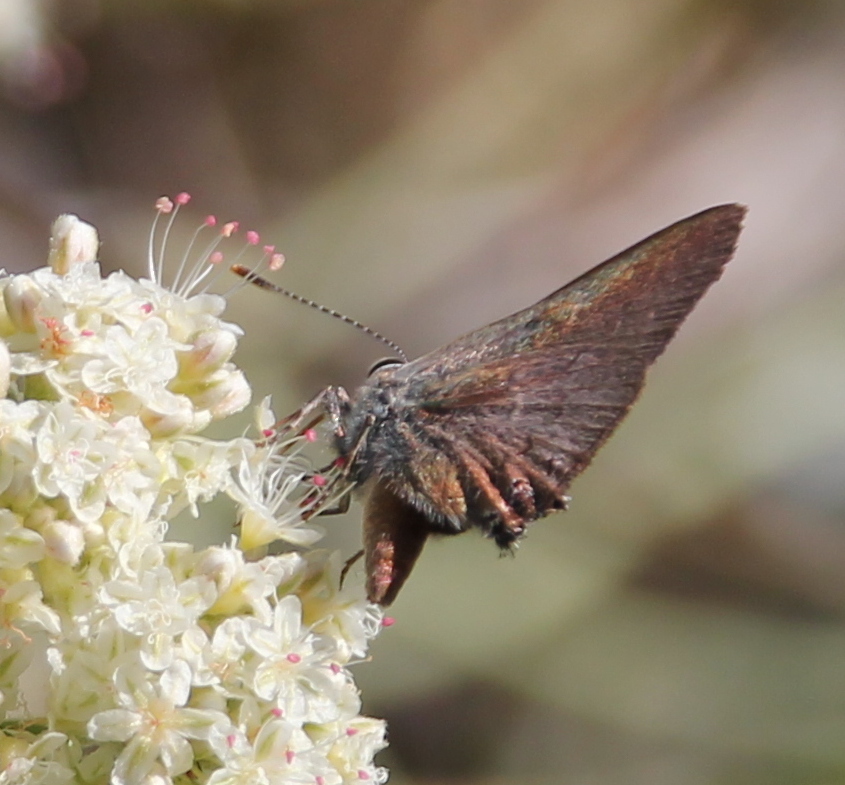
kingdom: Animalia
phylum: Arthropoda
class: Insecta
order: Lepidoptera
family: Lycaenidae
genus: Strymon
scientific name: Strymon saepium
